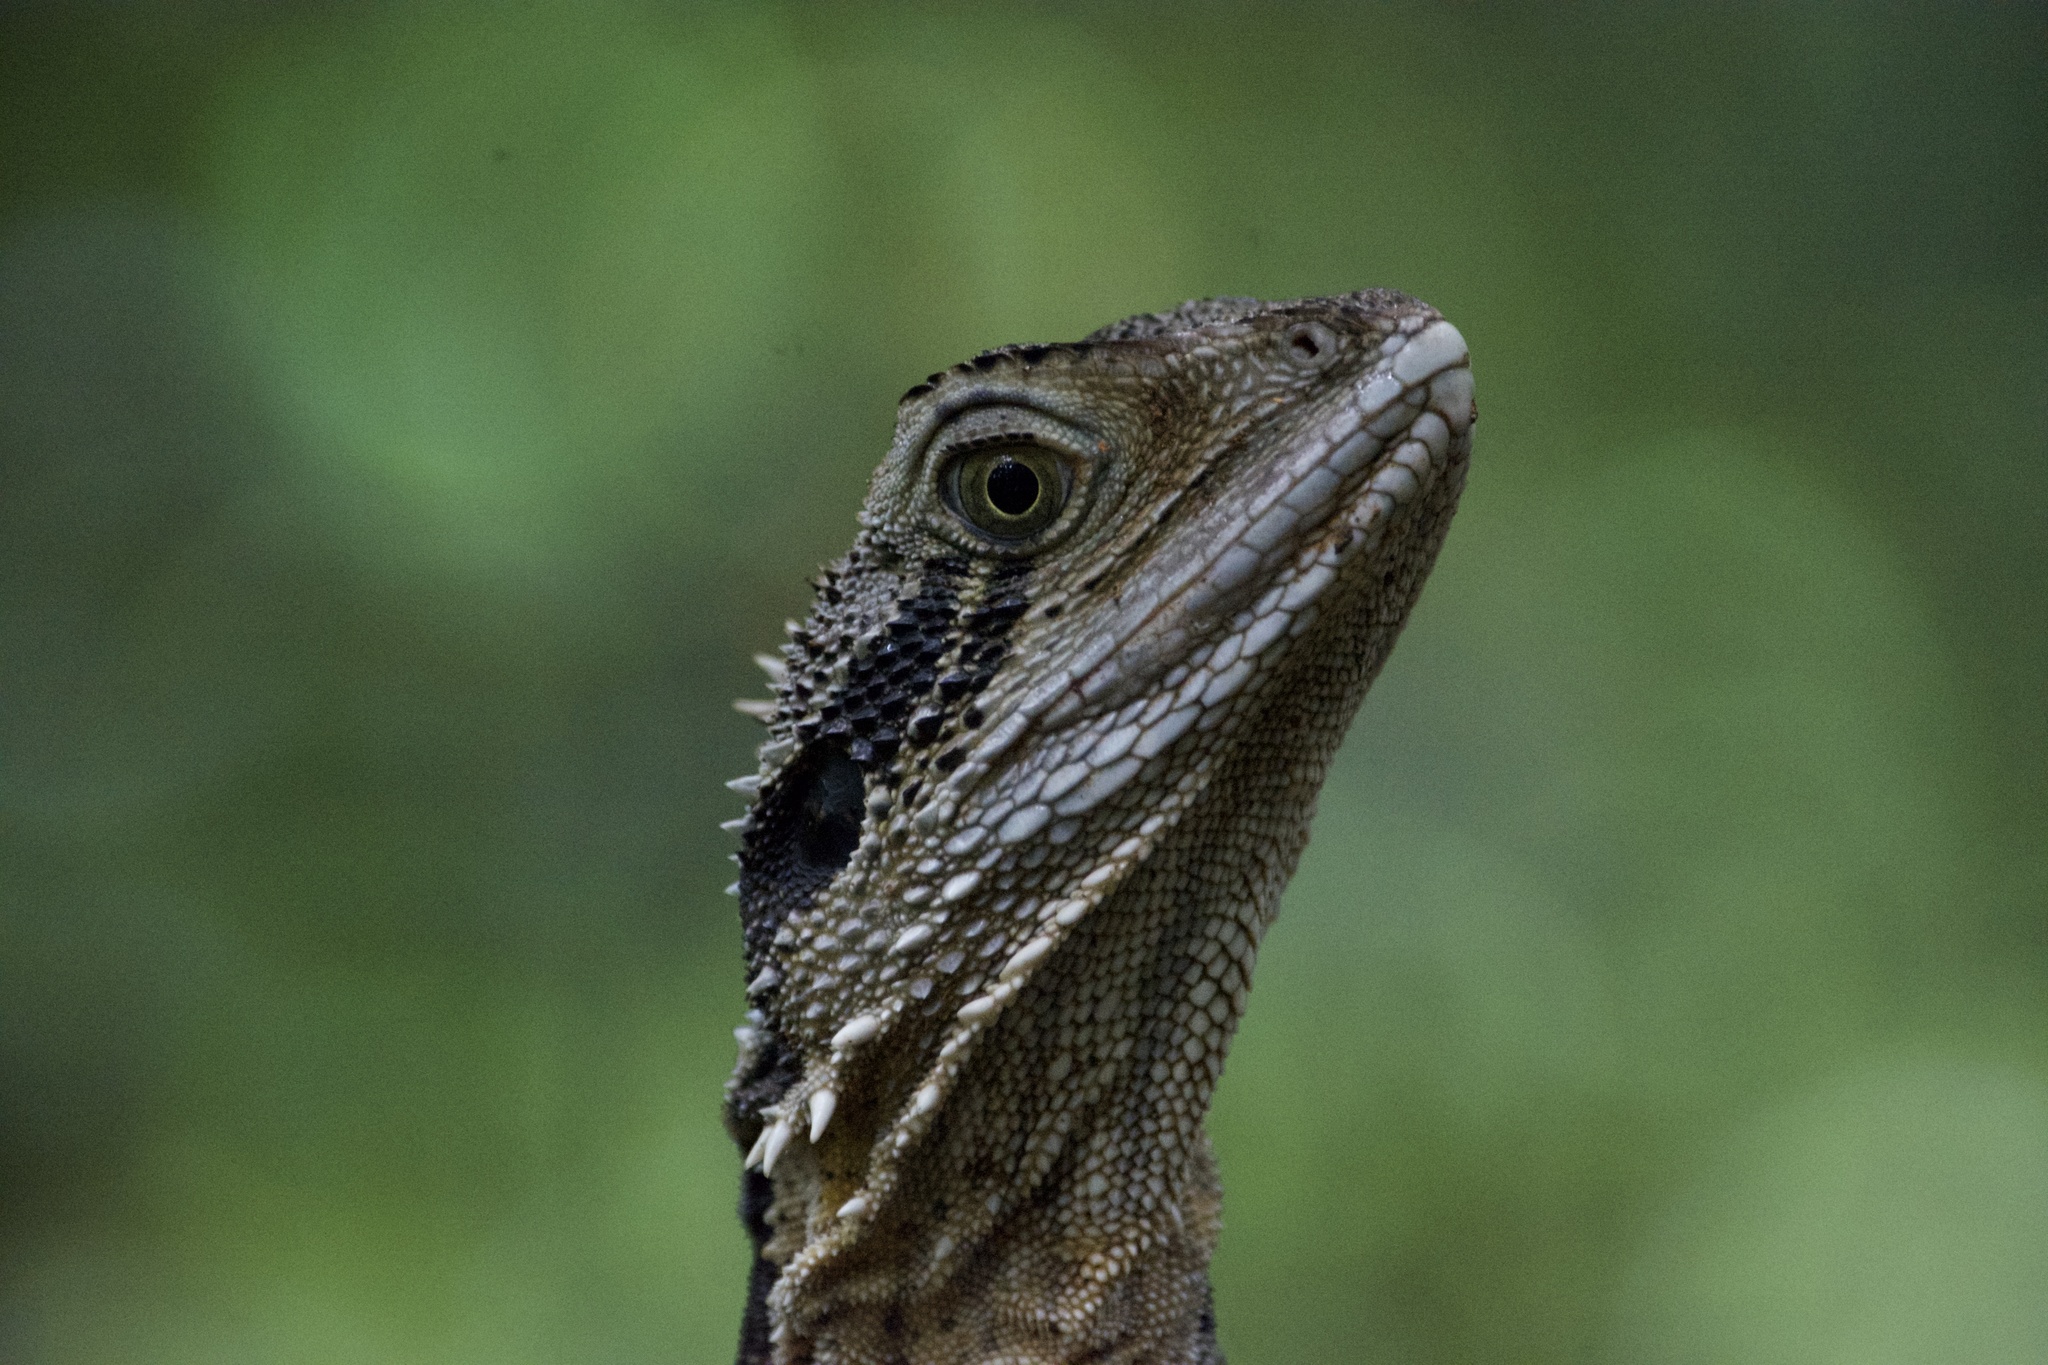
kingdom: Animalia
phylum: Chordata
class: Squamata
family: Agamidae
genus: Intellagama
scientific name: Intellagama lesueurii
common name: Eastern water dragon
